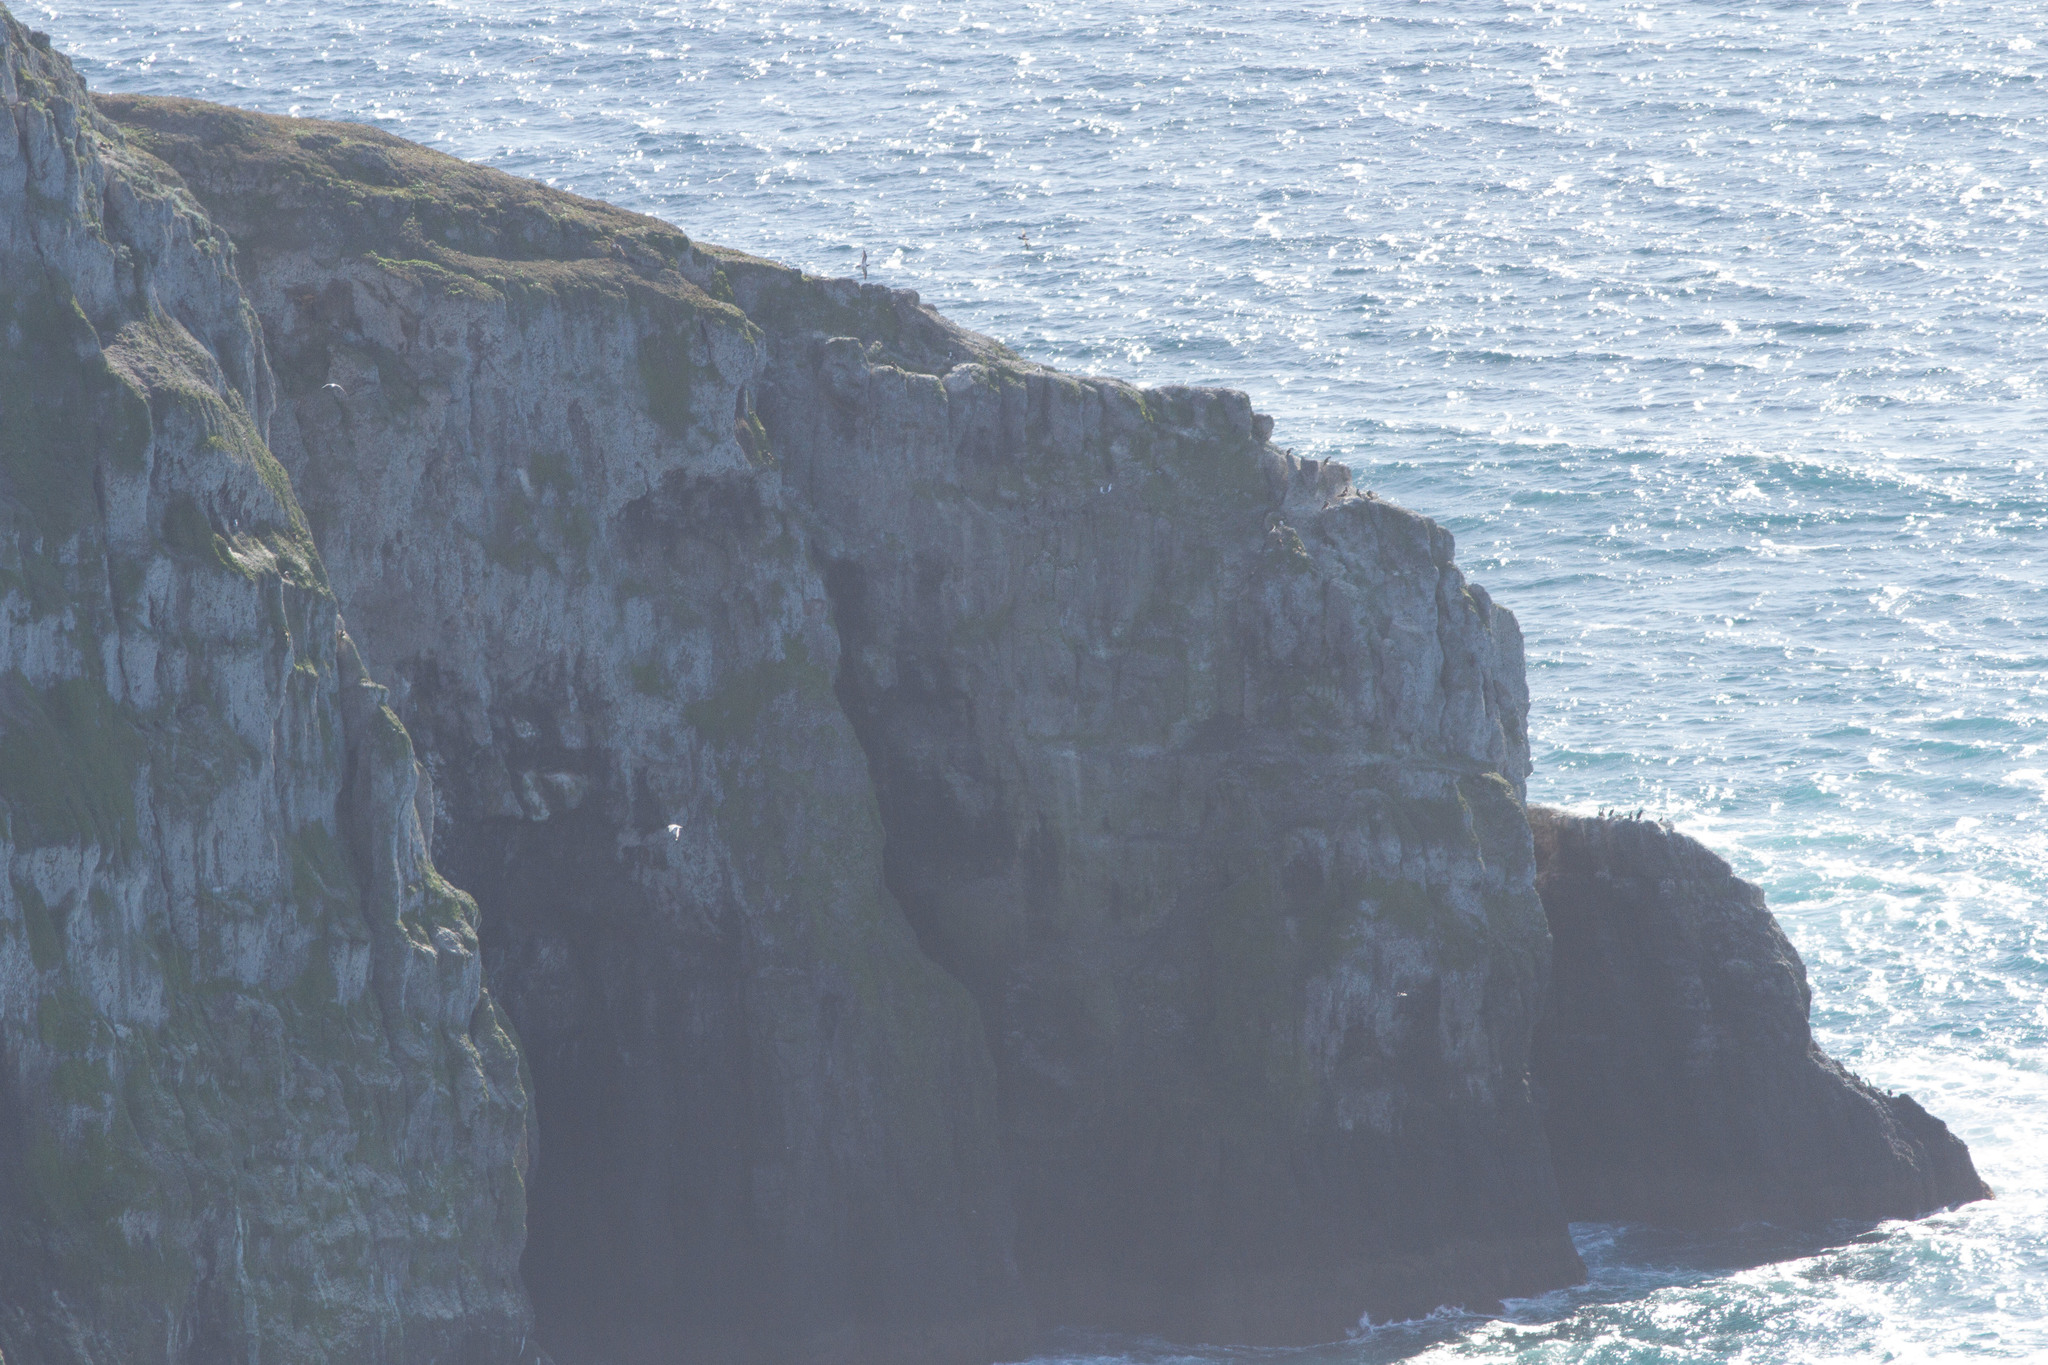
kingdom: Animalia
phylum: Chordata
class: Aves
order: Suliformes
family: Sulidae
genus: Sula
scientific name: Sula leucogaster
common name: Brown booby
